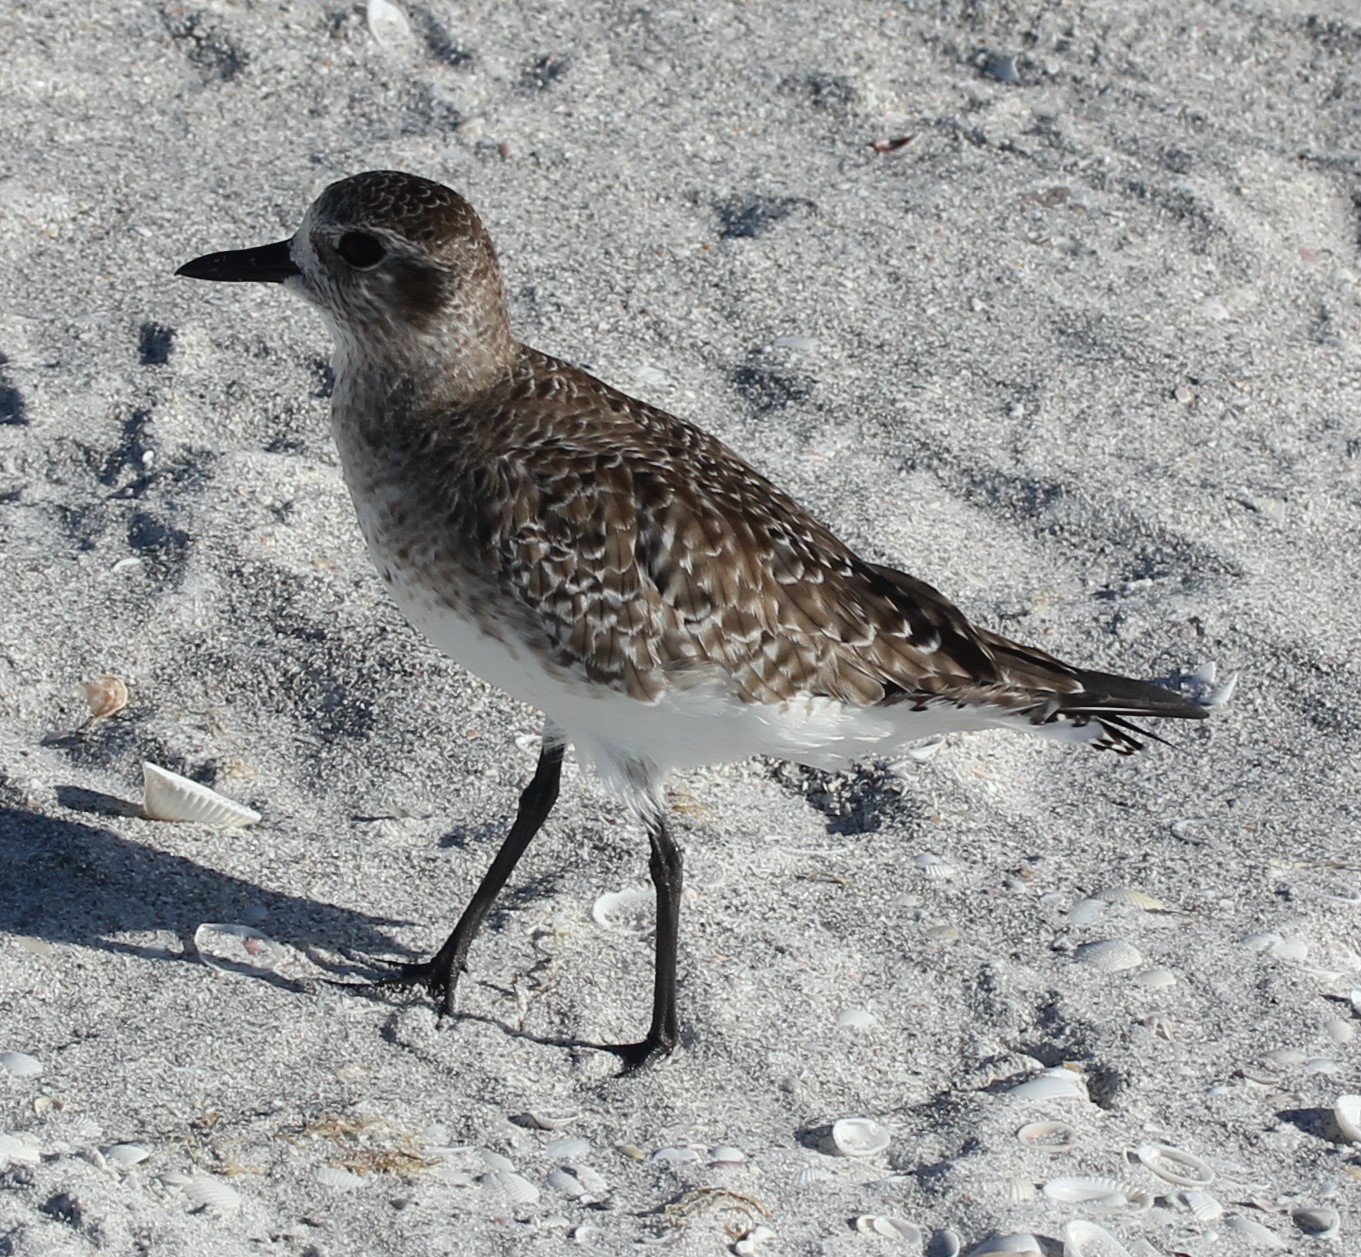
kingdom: Animalia
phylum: Chordata
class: Aves
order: Charadriiformes
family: Charadriidae
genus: Pluvialis
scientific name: Pluvialis squatarola
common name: Grey plover
